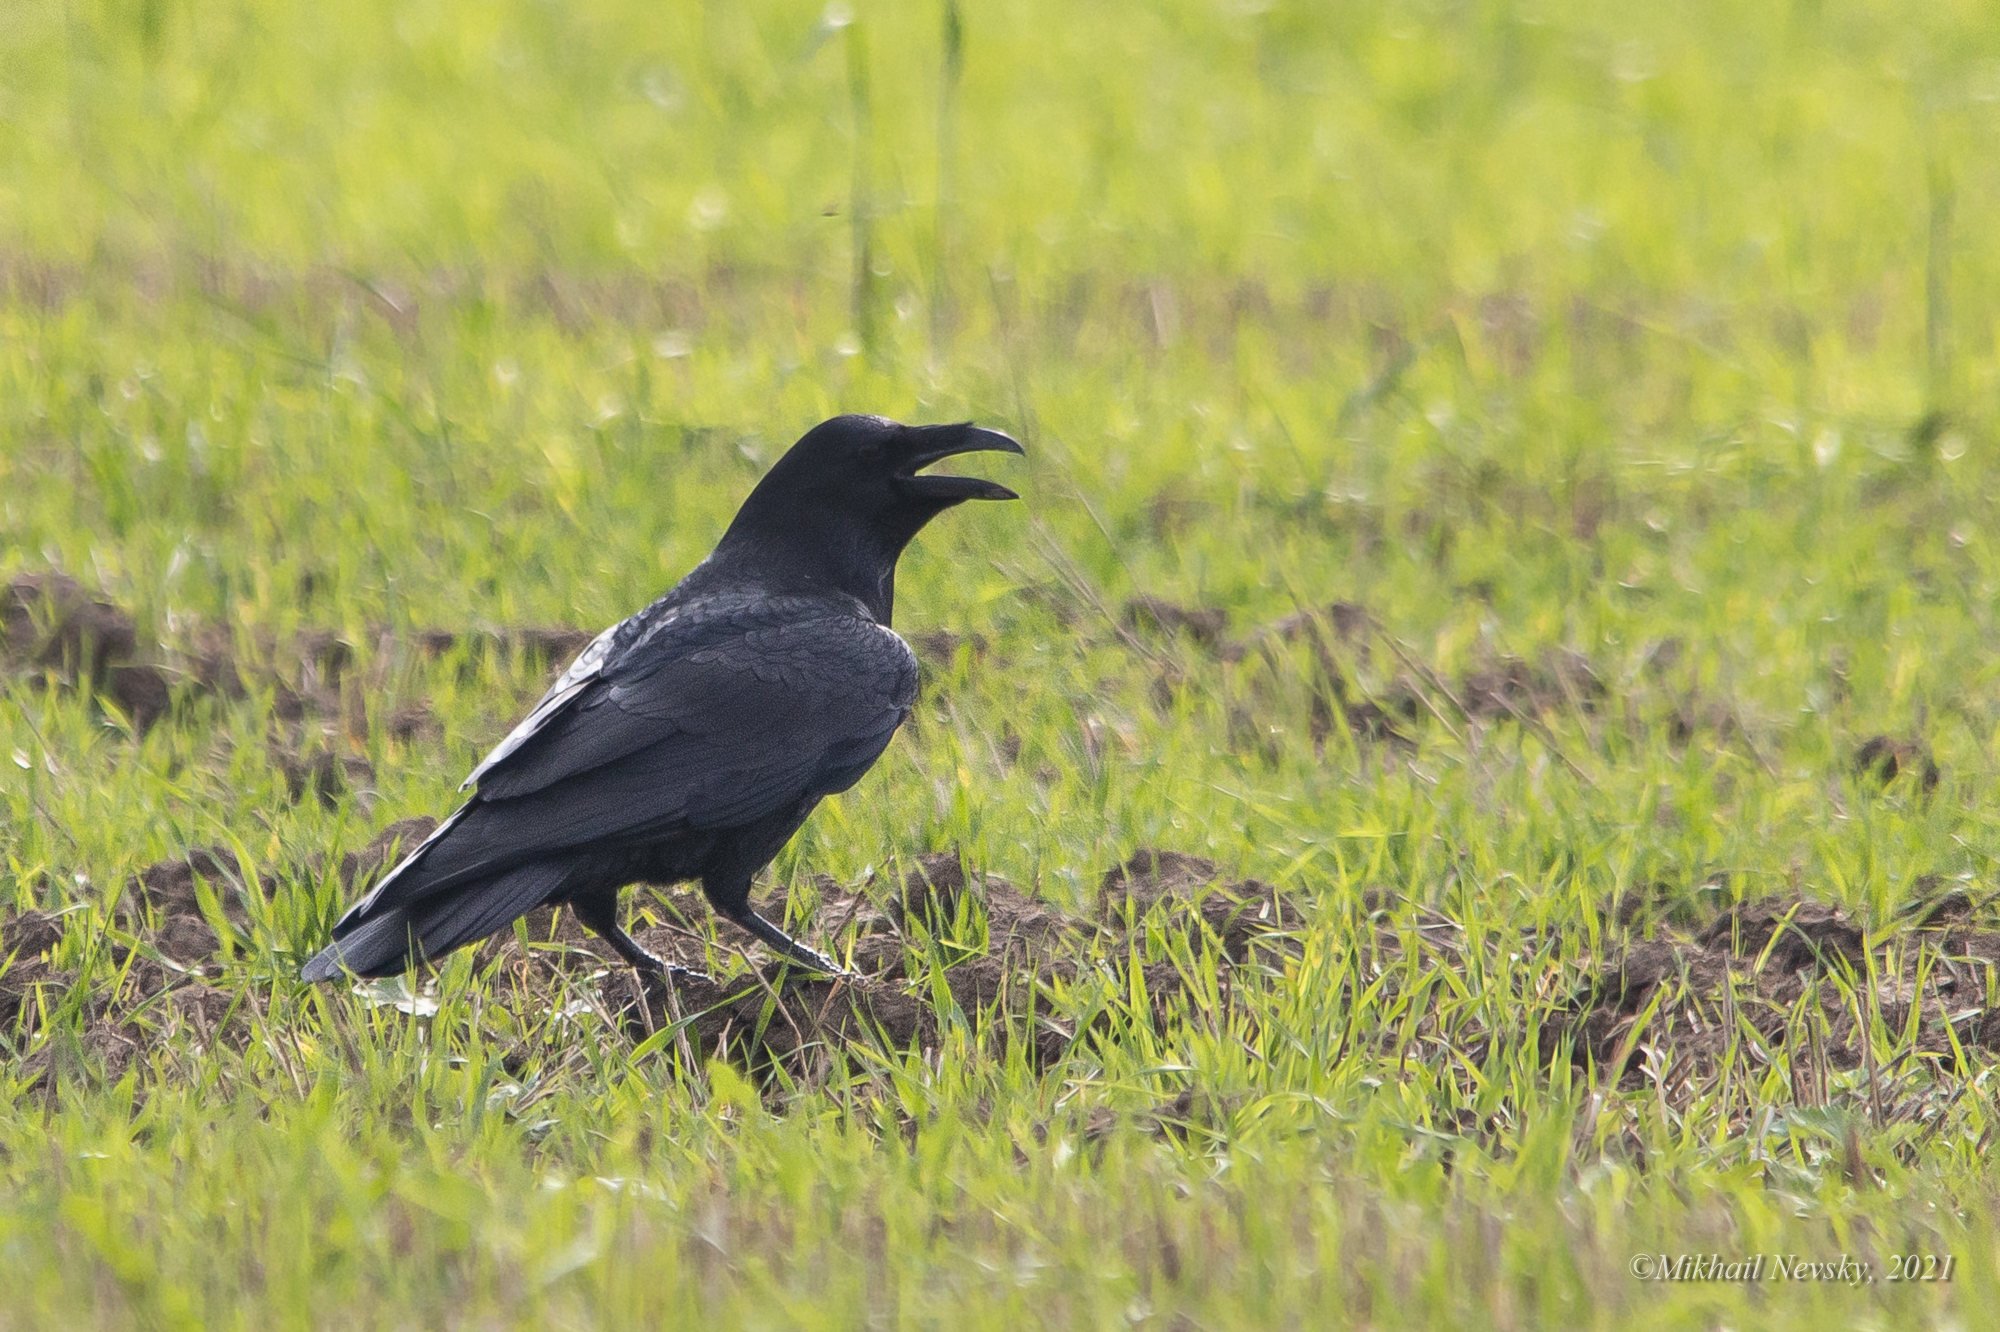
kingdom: Animalia
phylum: Chordata
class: Aves
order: Passeriformes
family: Corvidae
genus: Corvus
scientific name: Corvus corax
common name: Common raven
